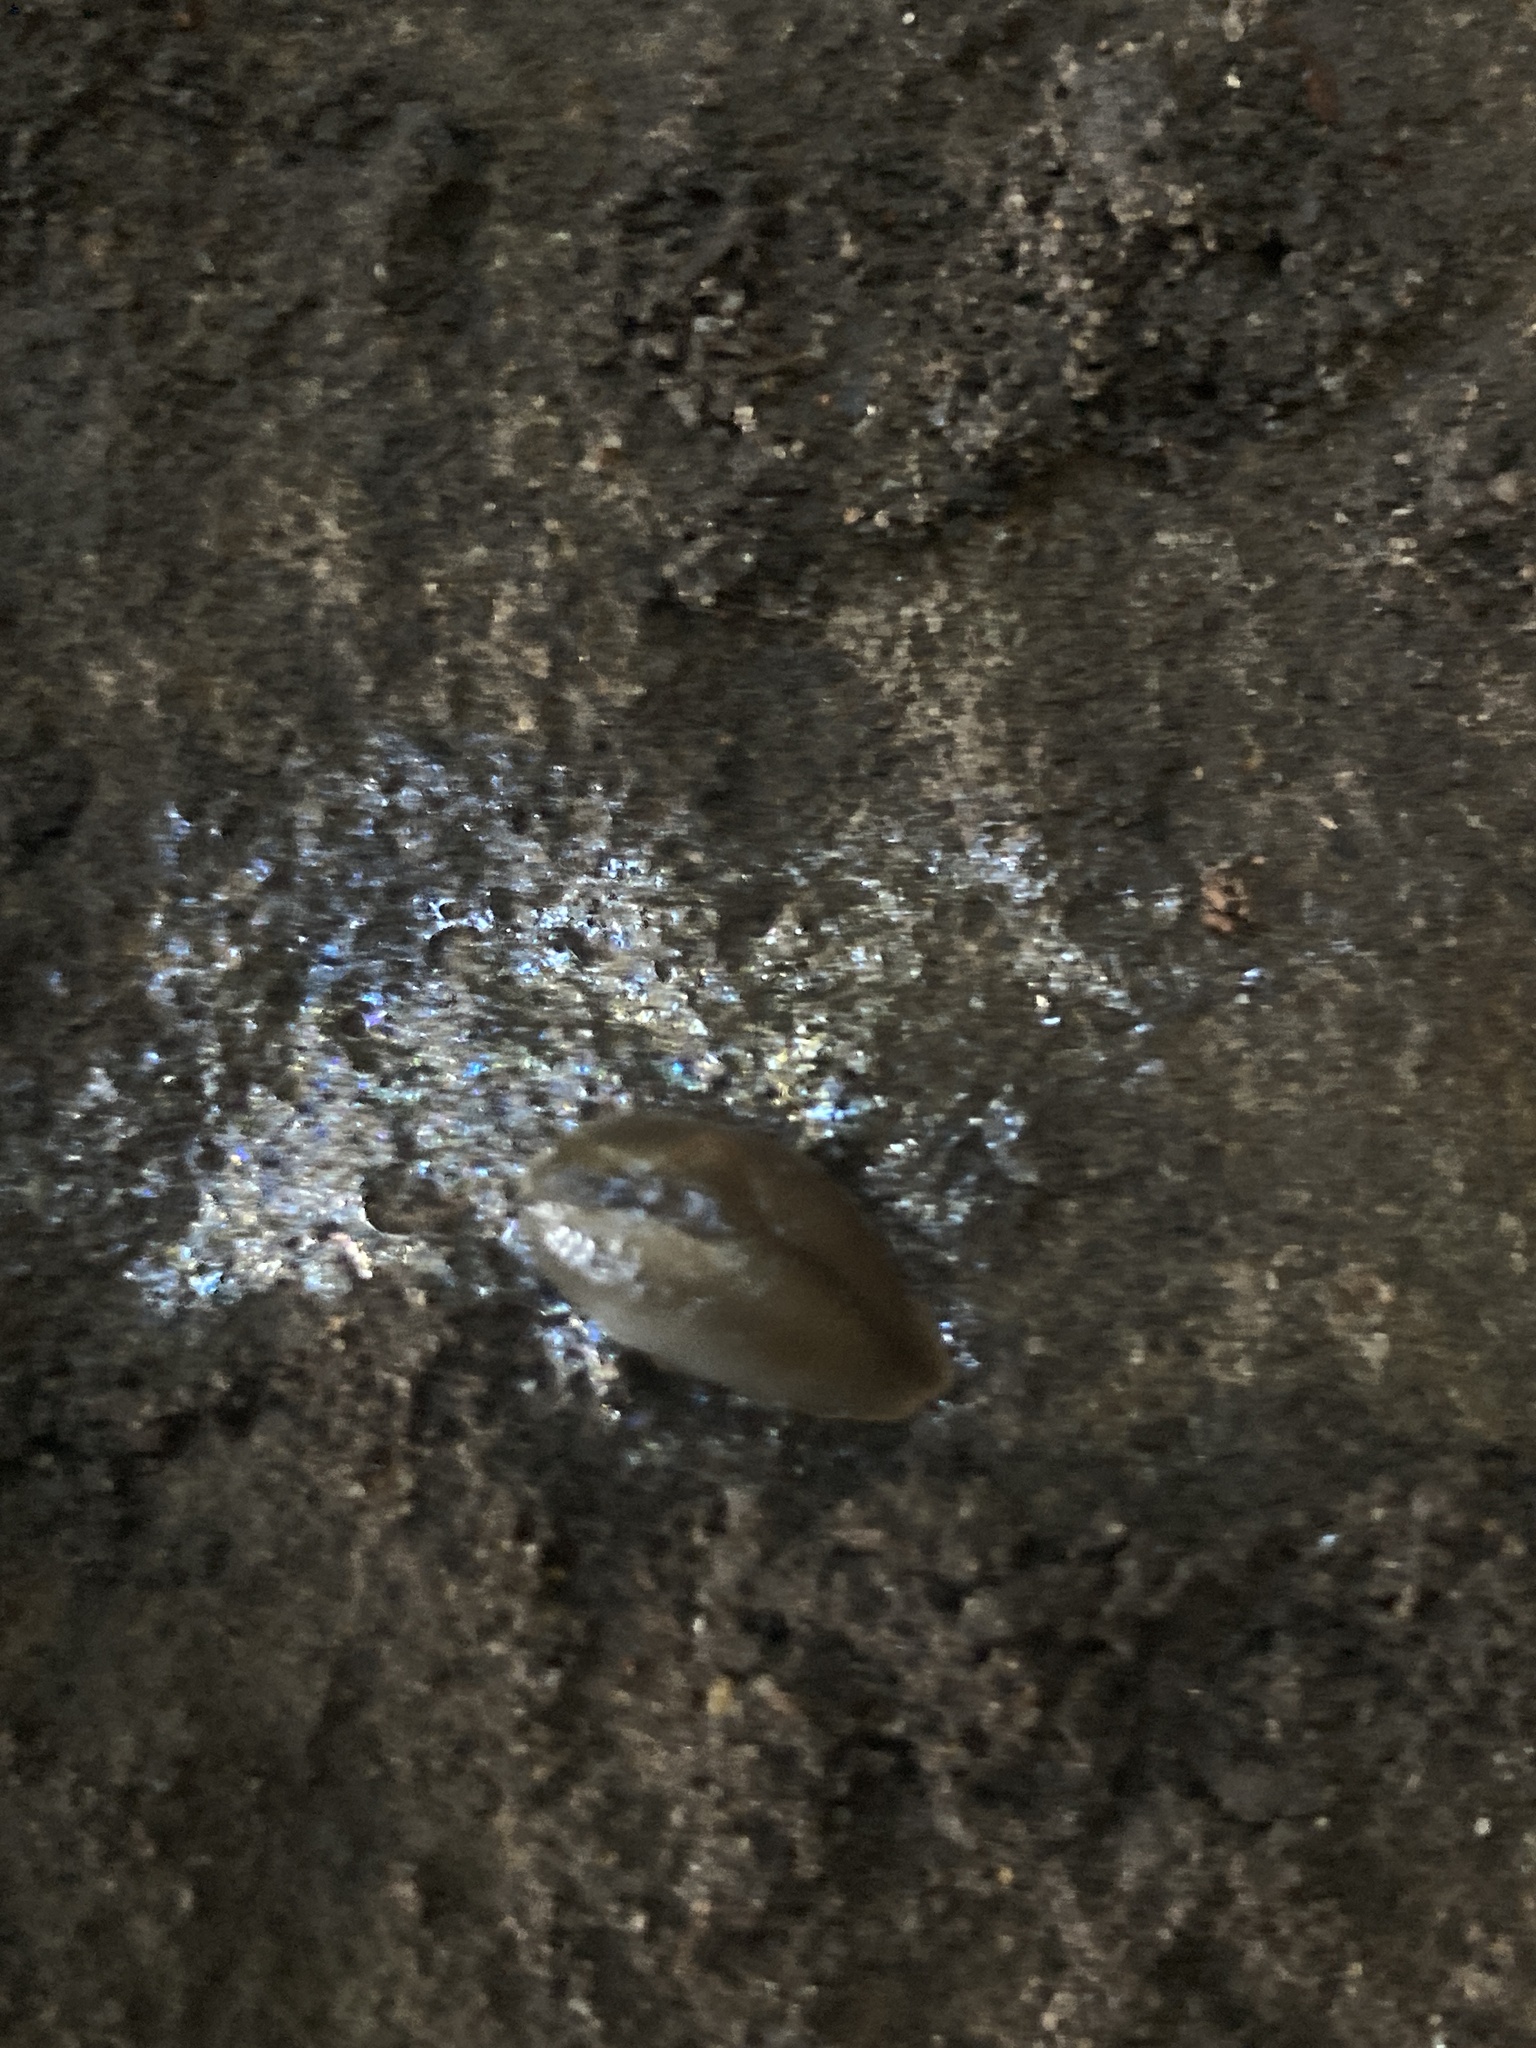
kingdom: Animalia
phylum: Mollusca
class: Gastropoda
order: Stylommatophora
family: Athoracophoridae
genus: Triboniophorus
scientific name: Triboniophorus graeffei
